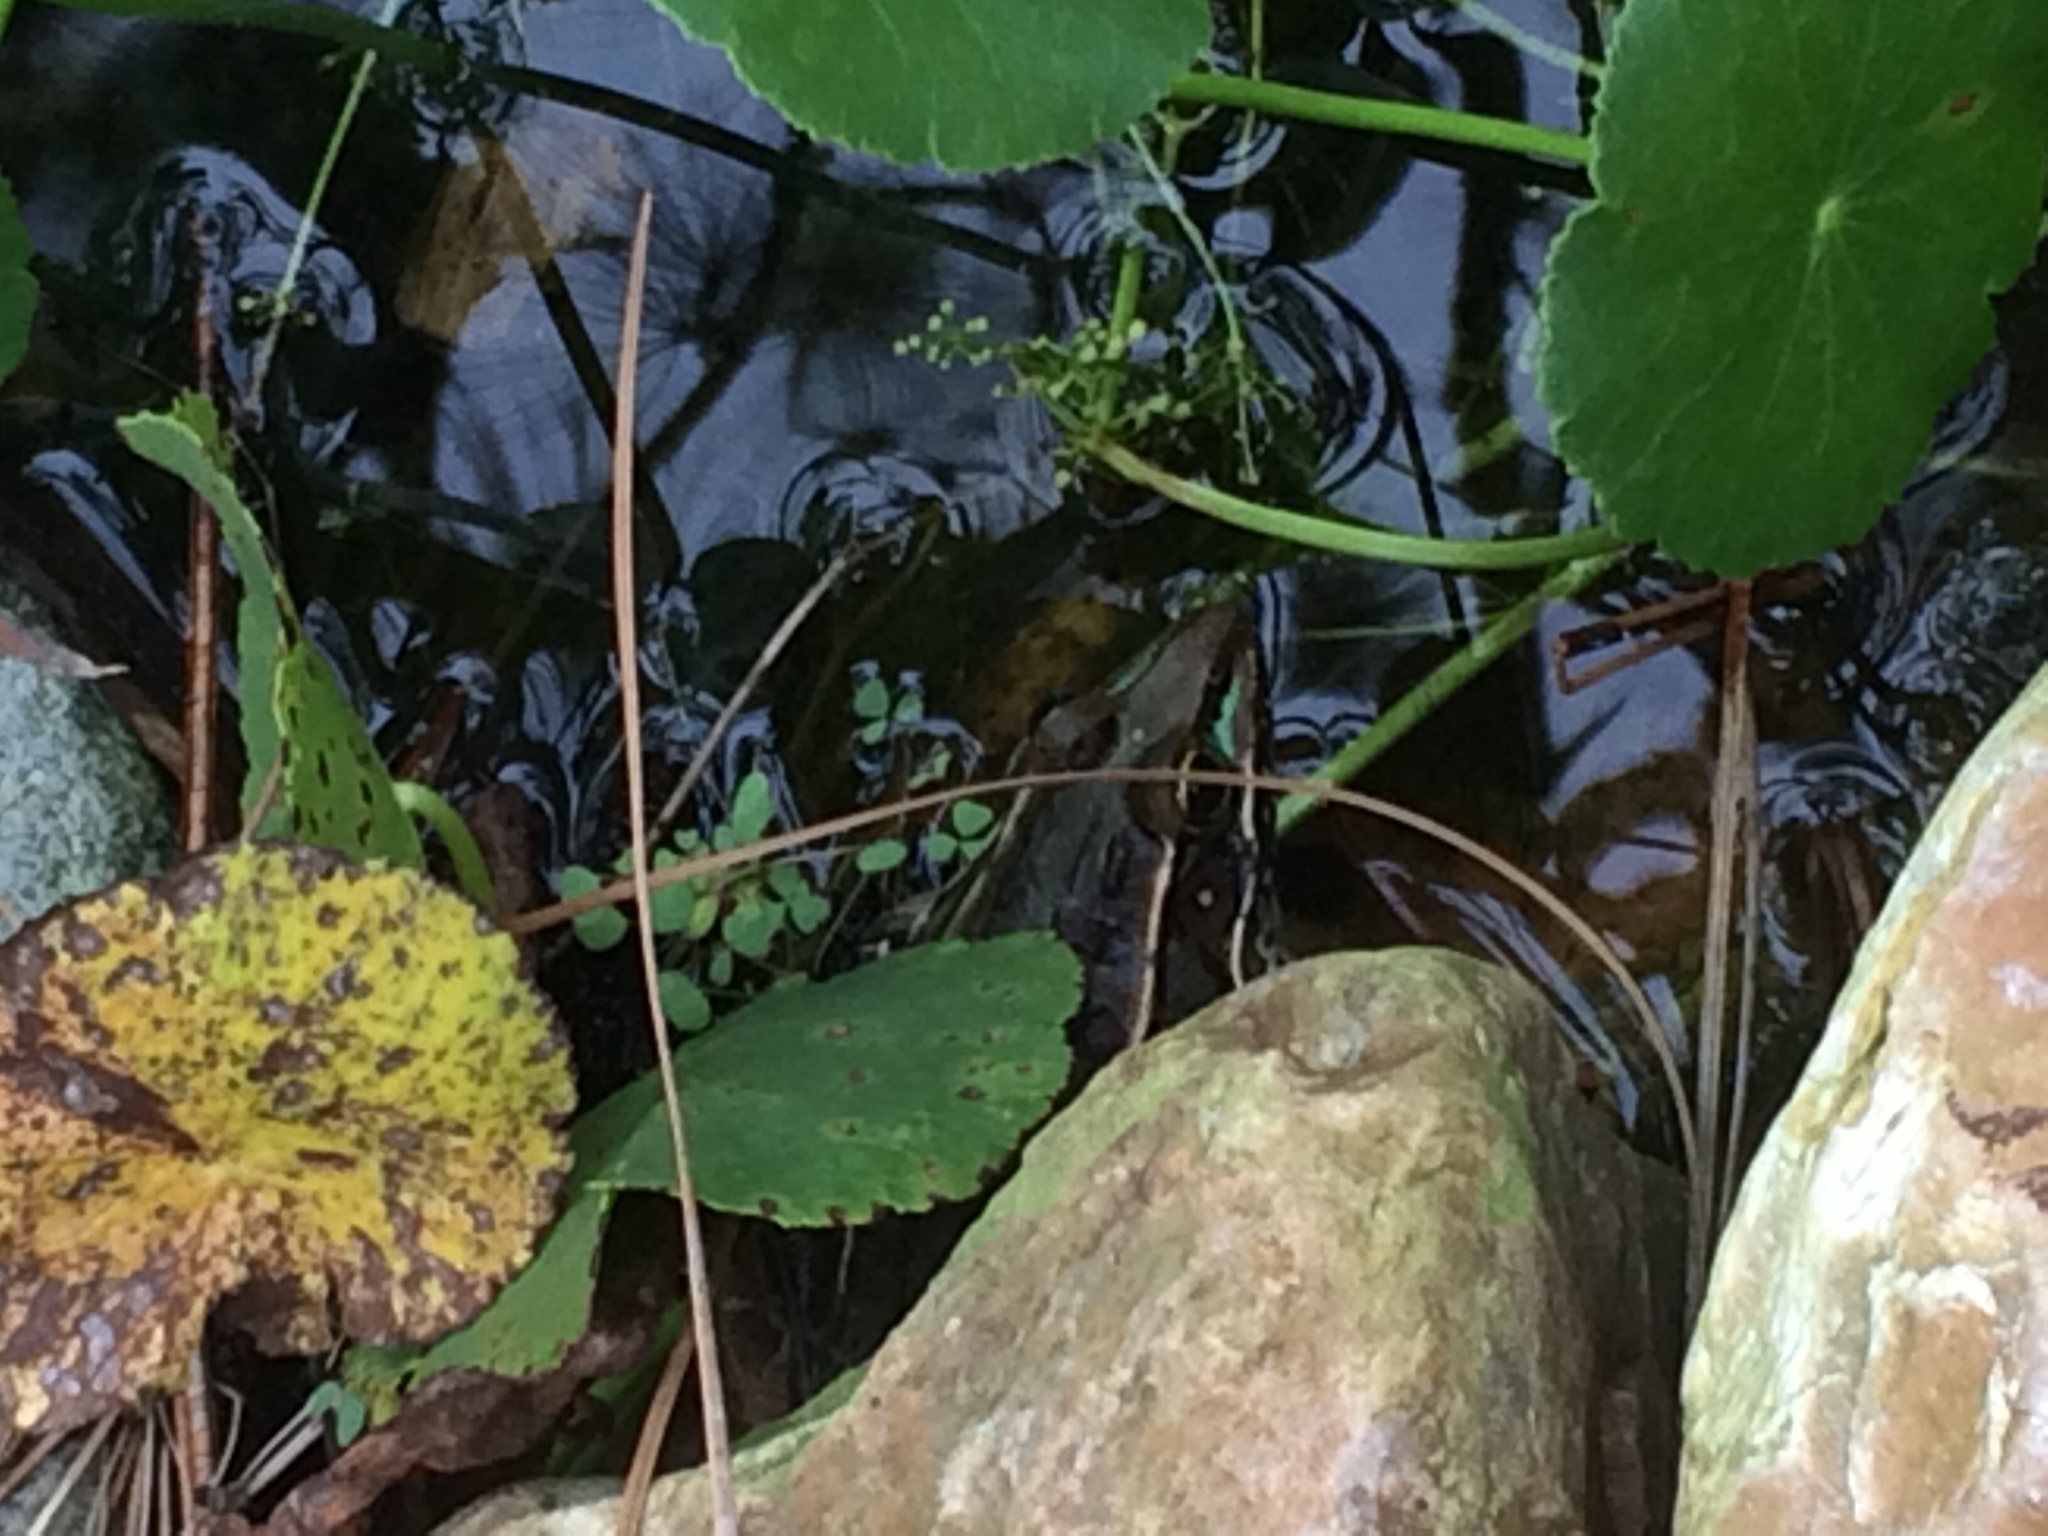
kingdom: Animalia
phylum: Chordata
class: Amphibia
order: Anura
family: Ranidae
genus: Lithobates
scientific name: Lithobates sphenocephalus
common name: Southern leopard frog
